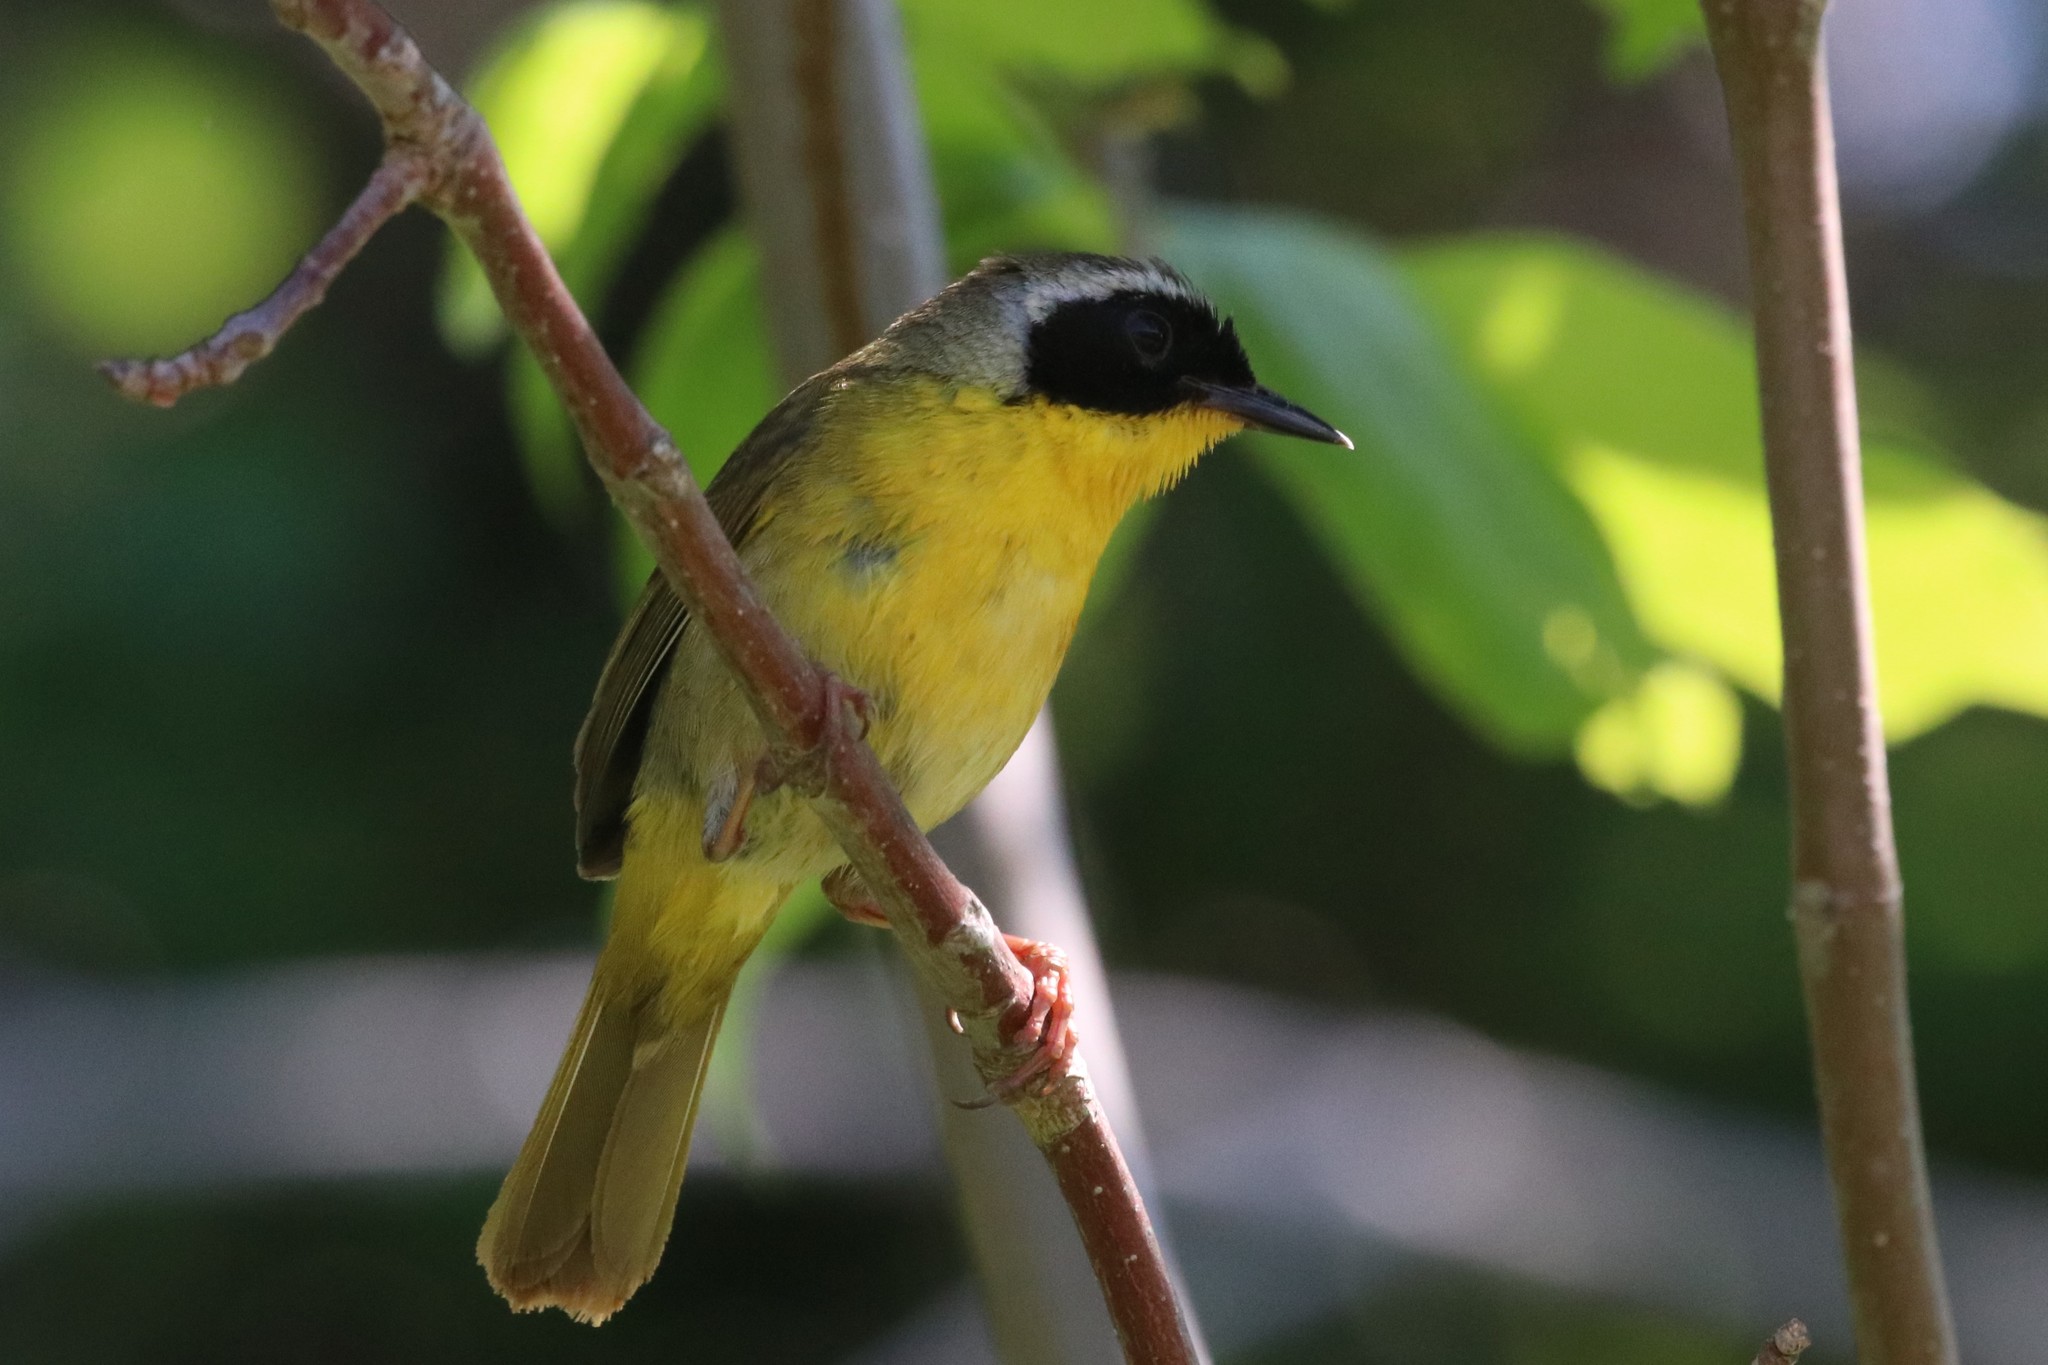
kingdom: Animalia
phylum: Chordata
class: Aves
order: Passeriformes
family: Parulidae
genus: Geothlypis
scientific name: Geothlypis trichas
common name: Common yellowthroat
